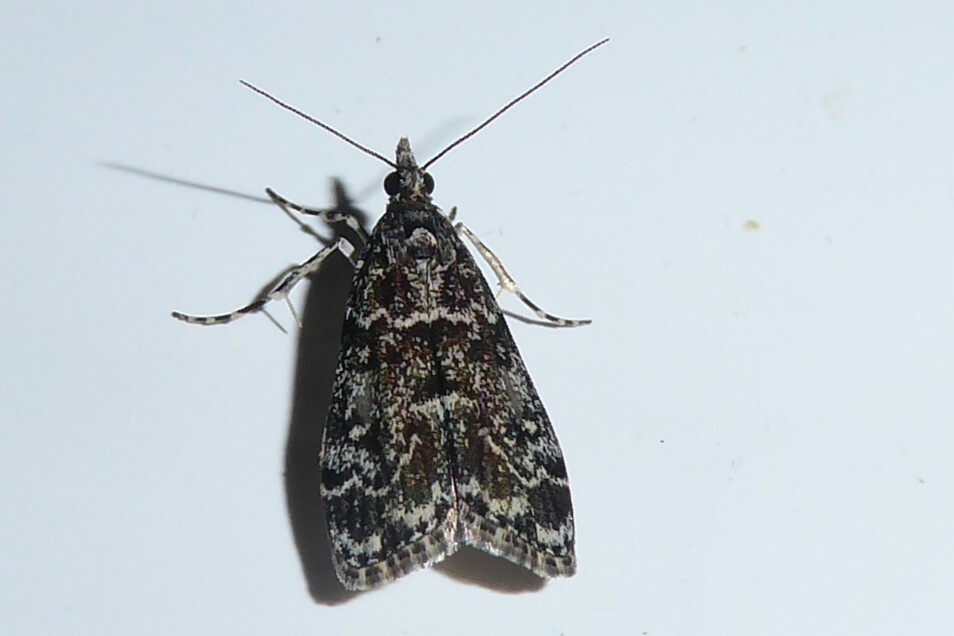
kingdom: Animalia
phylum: Arthropoda
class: Insecta
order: Lepidoptera
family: Crambidae
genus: Eudonia
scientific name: Eudonia philerga
